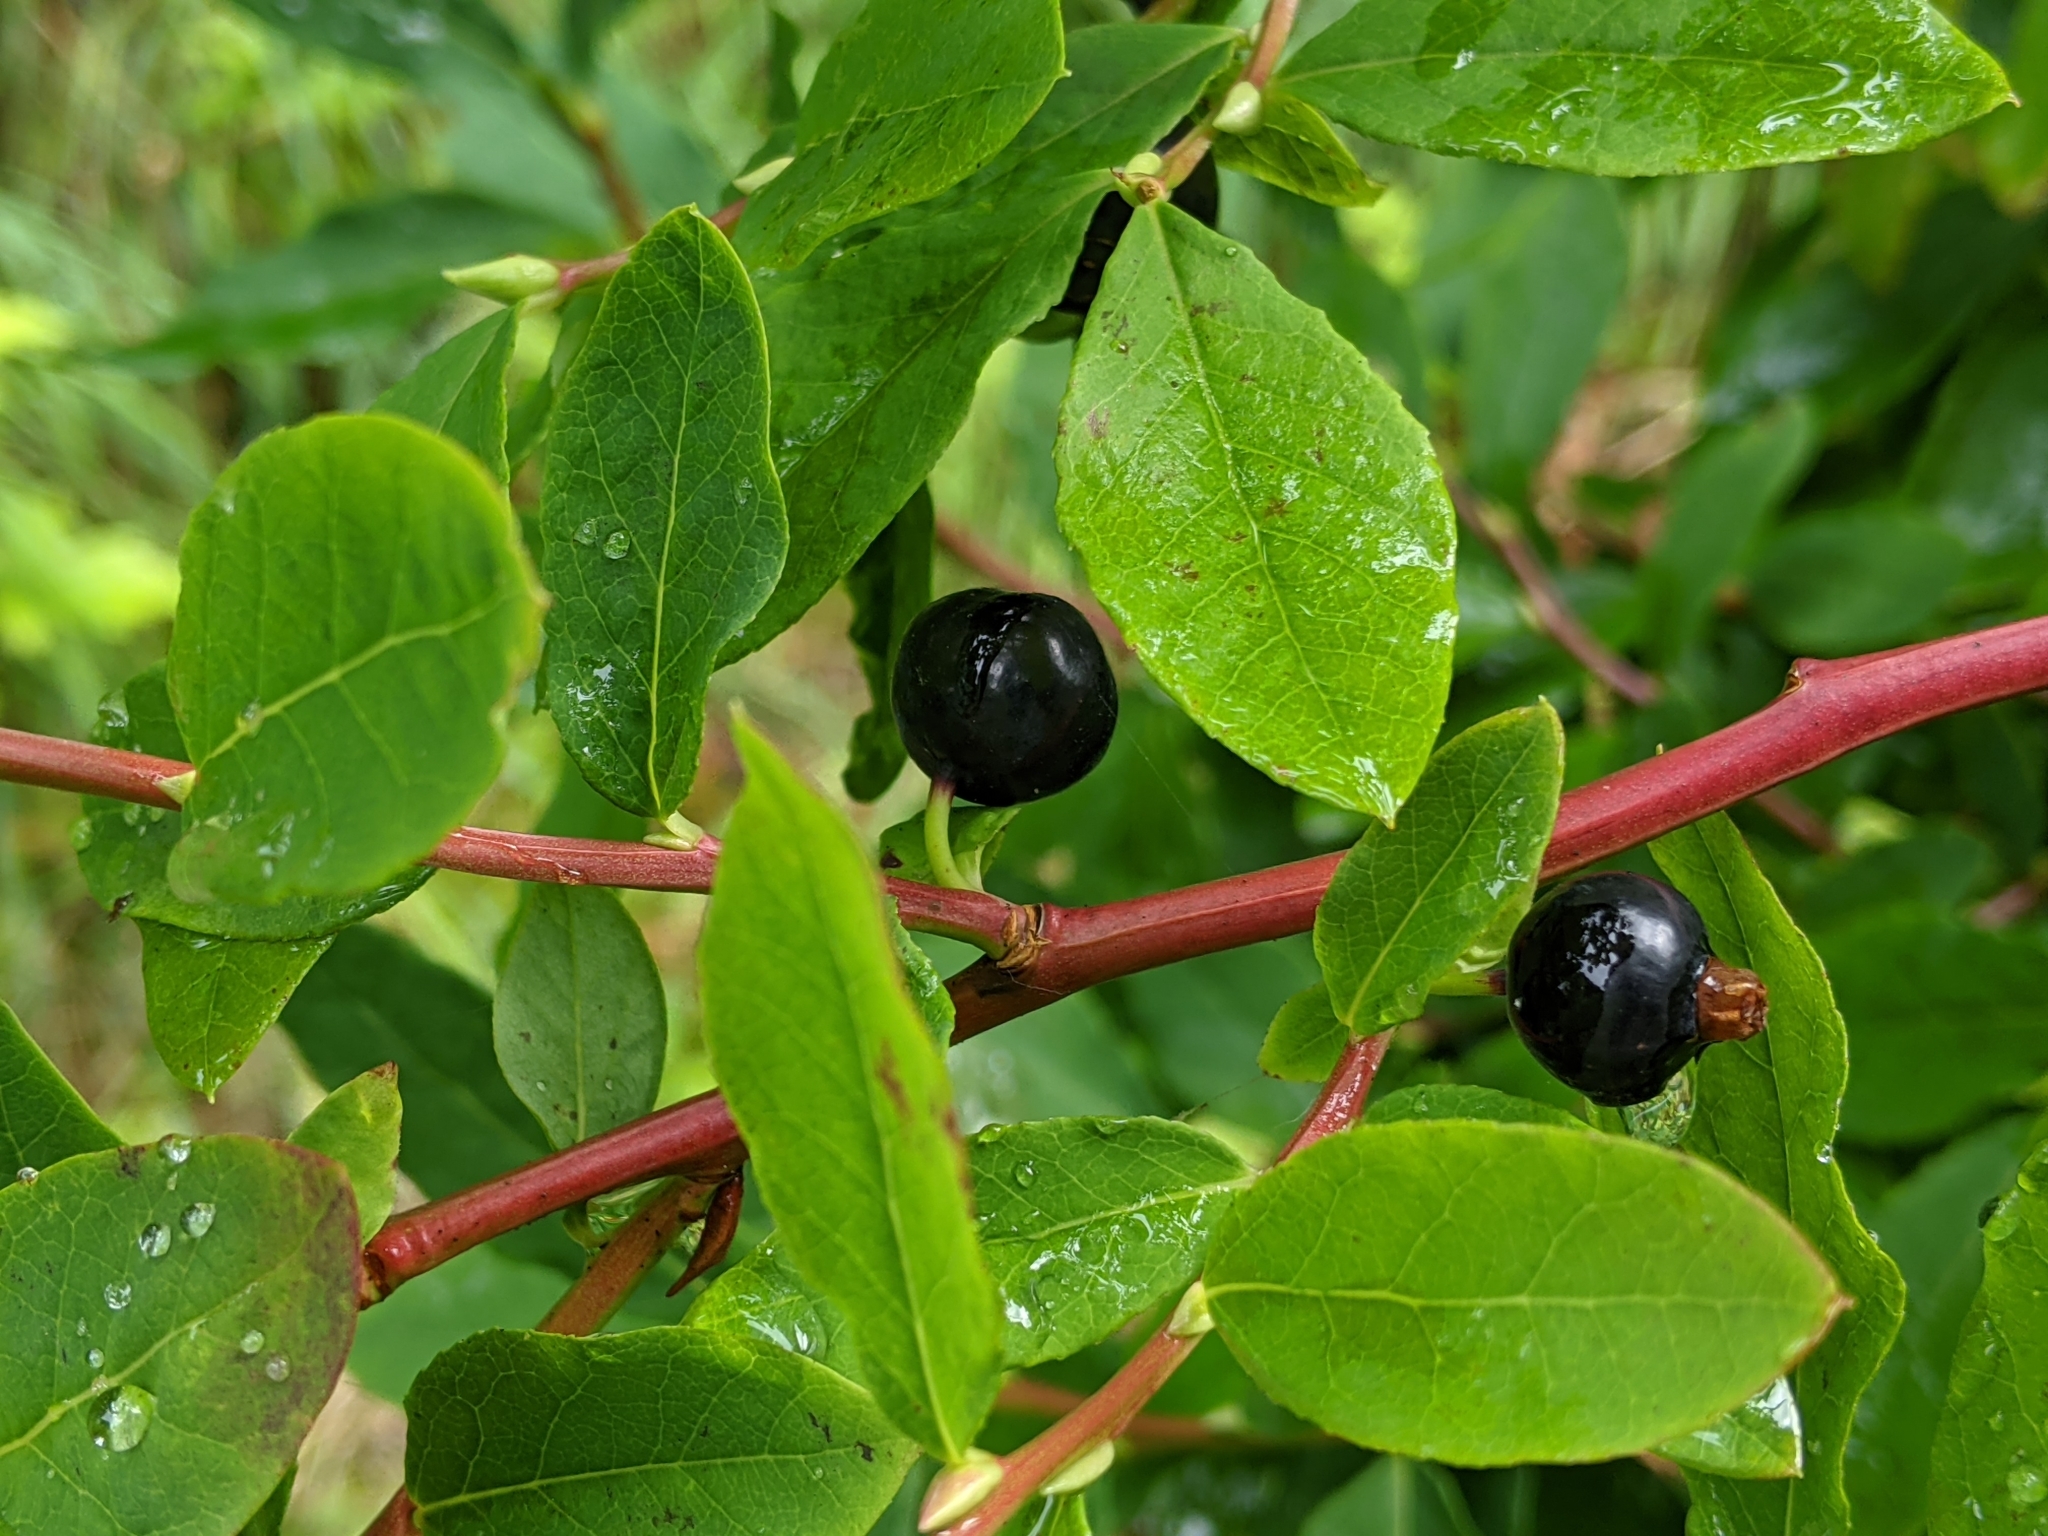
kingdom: Plantae
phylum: Tracheophyta
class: Magnoliopsida
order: Ericales
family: Ericaceae
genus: Vaccinium
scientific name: Vaccinium ovalifolium
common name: Early blueberry
